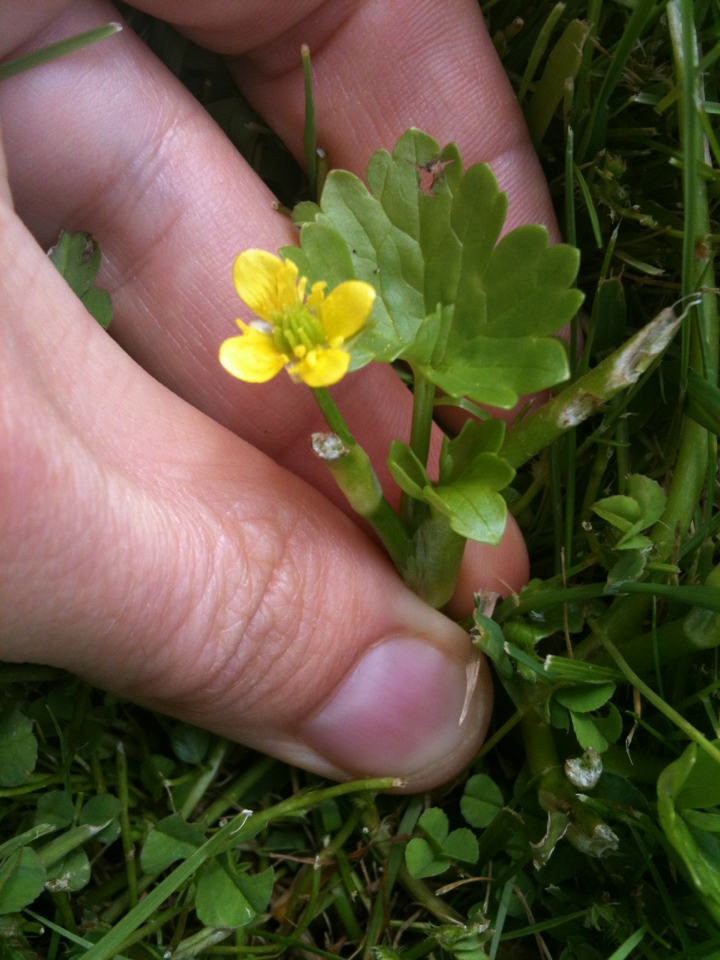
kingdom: Plantae
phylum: Tracheophyta
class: Magnoliopsida
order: Ranunculales
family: Ranunculaceae
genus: Ranunculus
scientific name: Ranunculus muricatus
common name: Rough-fruited buttercup
